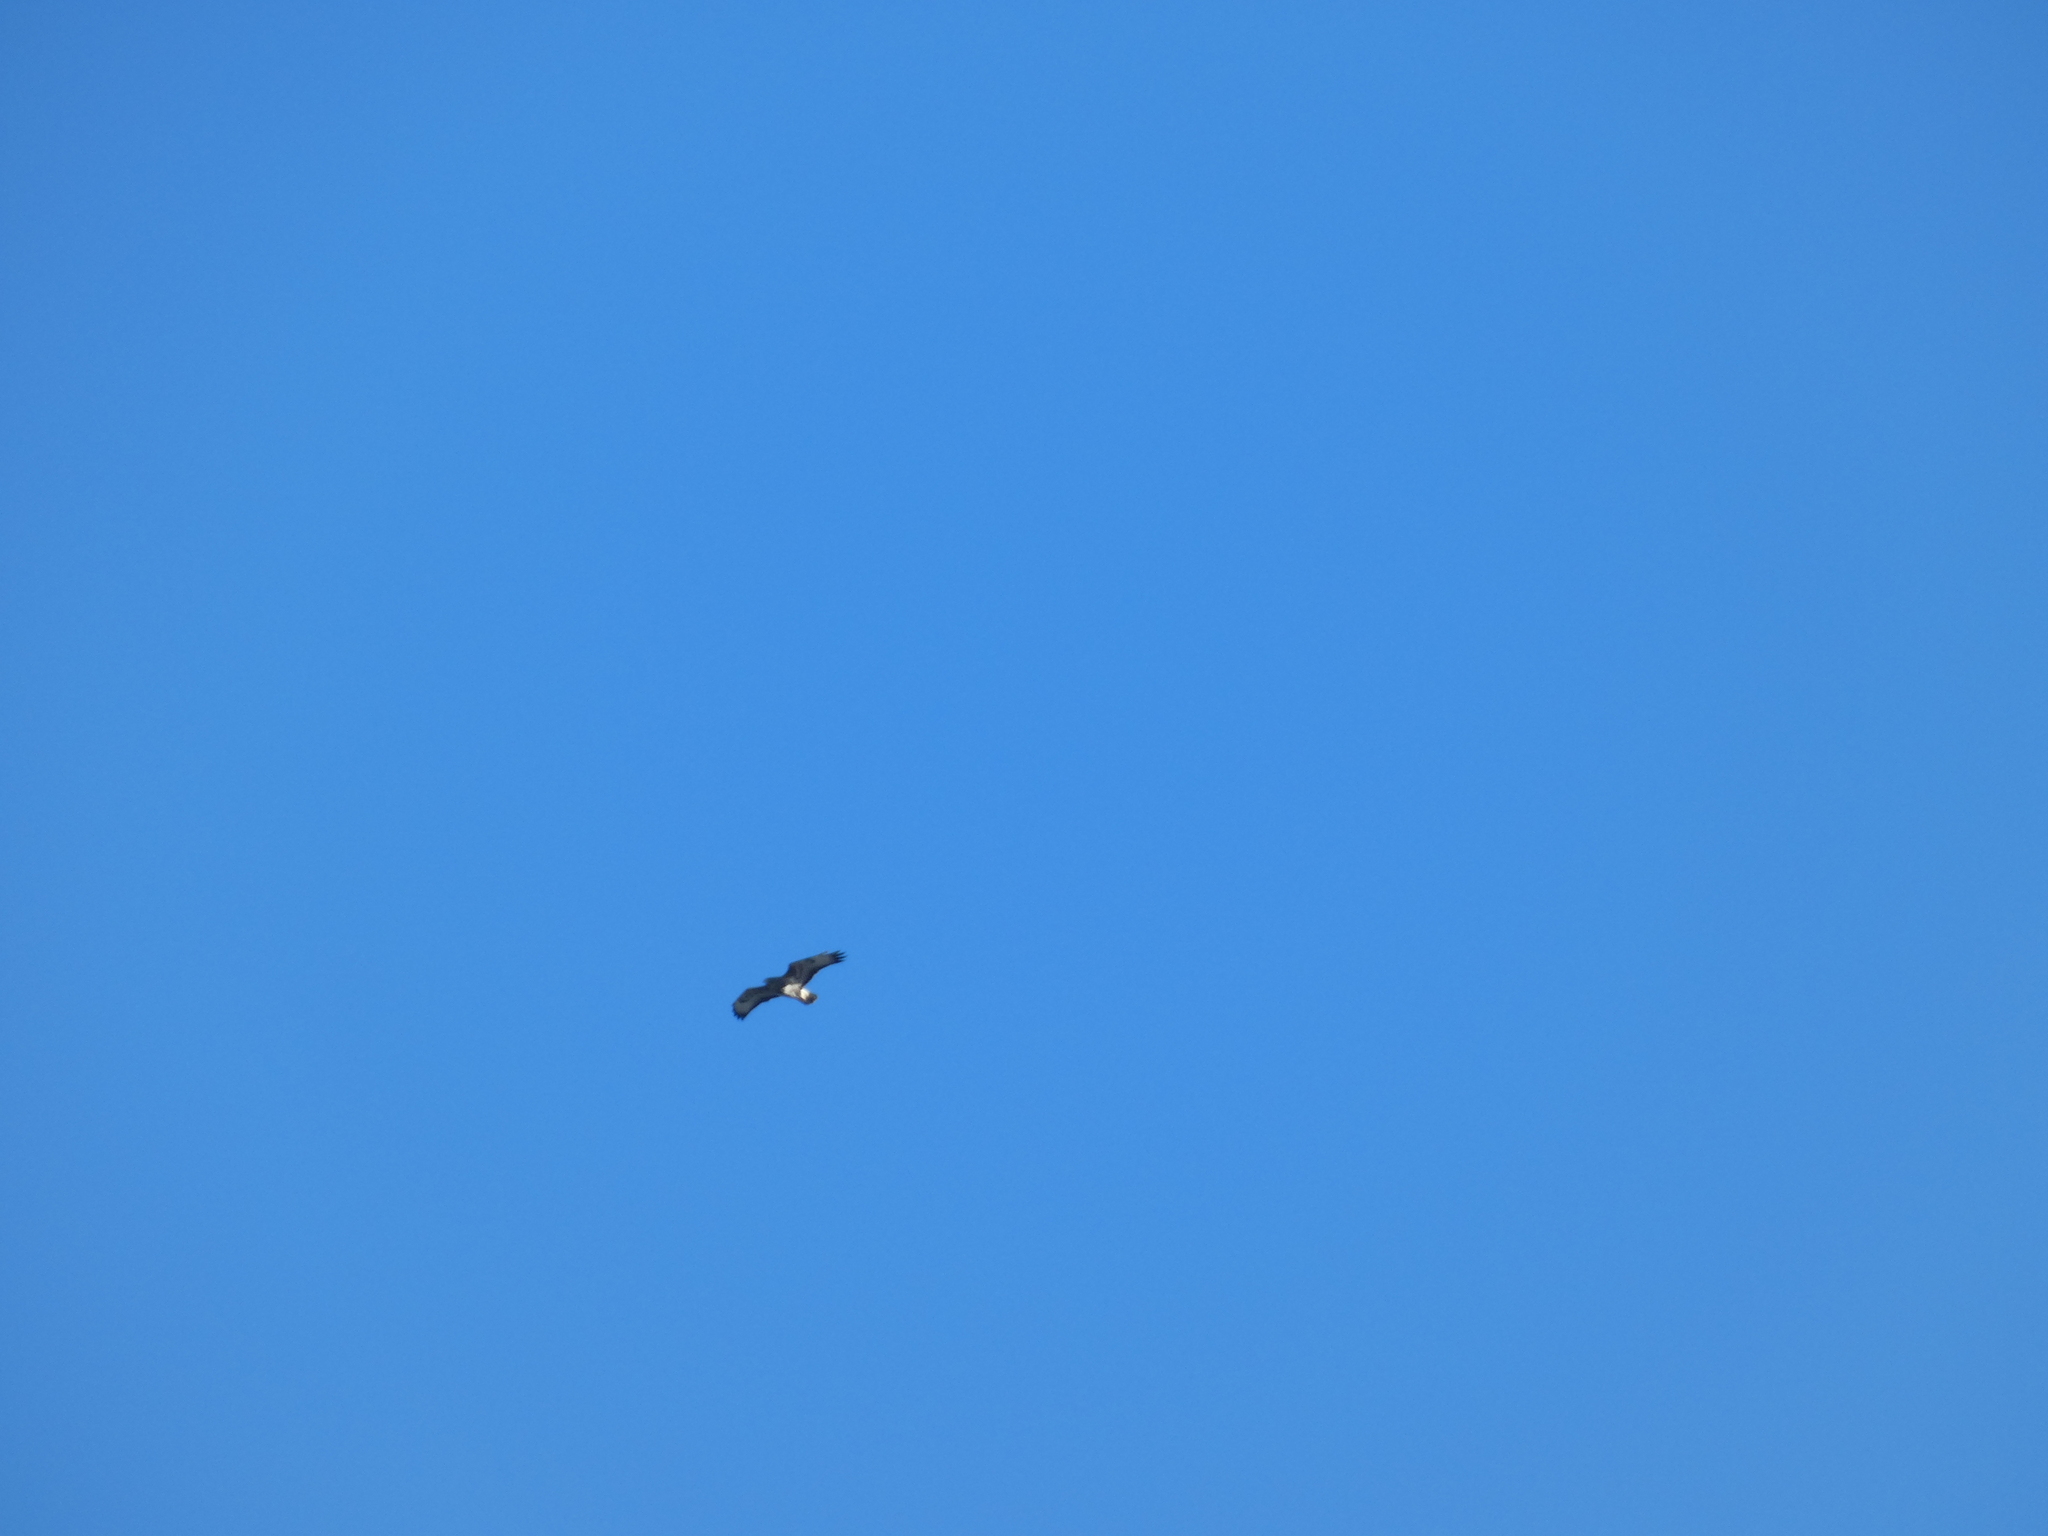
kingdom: Animalia
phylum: Chordata
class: Aves
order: Accipitriformes
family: Accipitridae
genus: Buteo
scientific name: Buteo buteo
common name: Common buzzard
